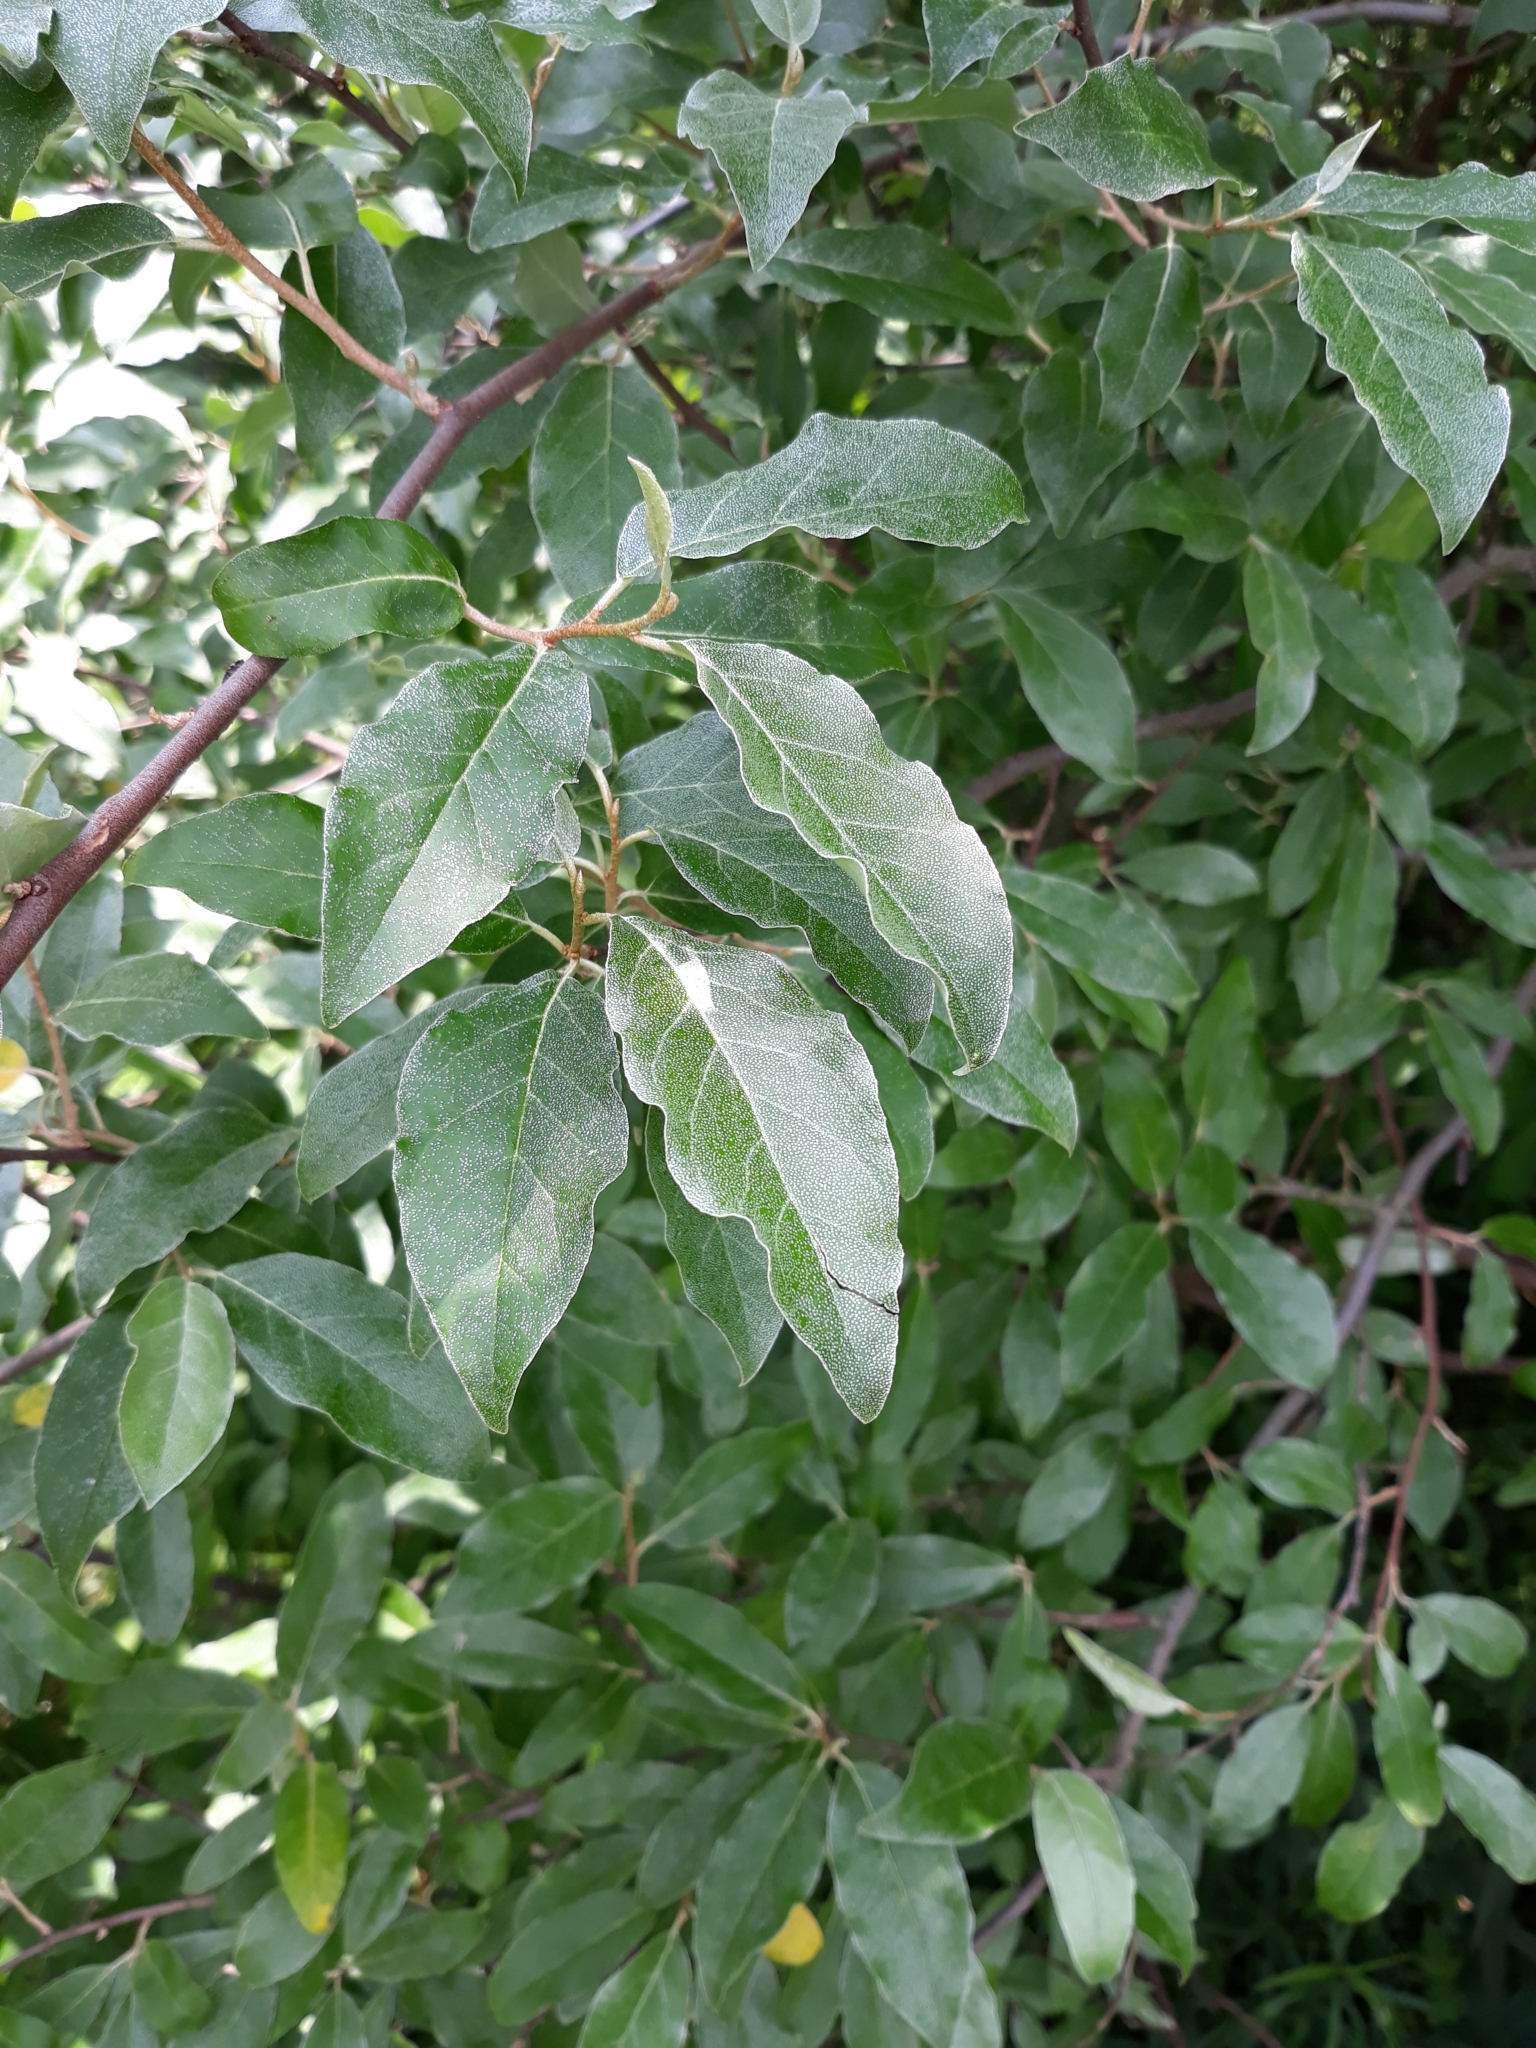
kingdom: Plantae
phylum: Tracheophyta
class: Magnoliopsida
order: Rosales
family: Elaeagnaceae
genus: Elaeagnus
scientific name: Elaeagnus umbellata
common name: Autumn olive
